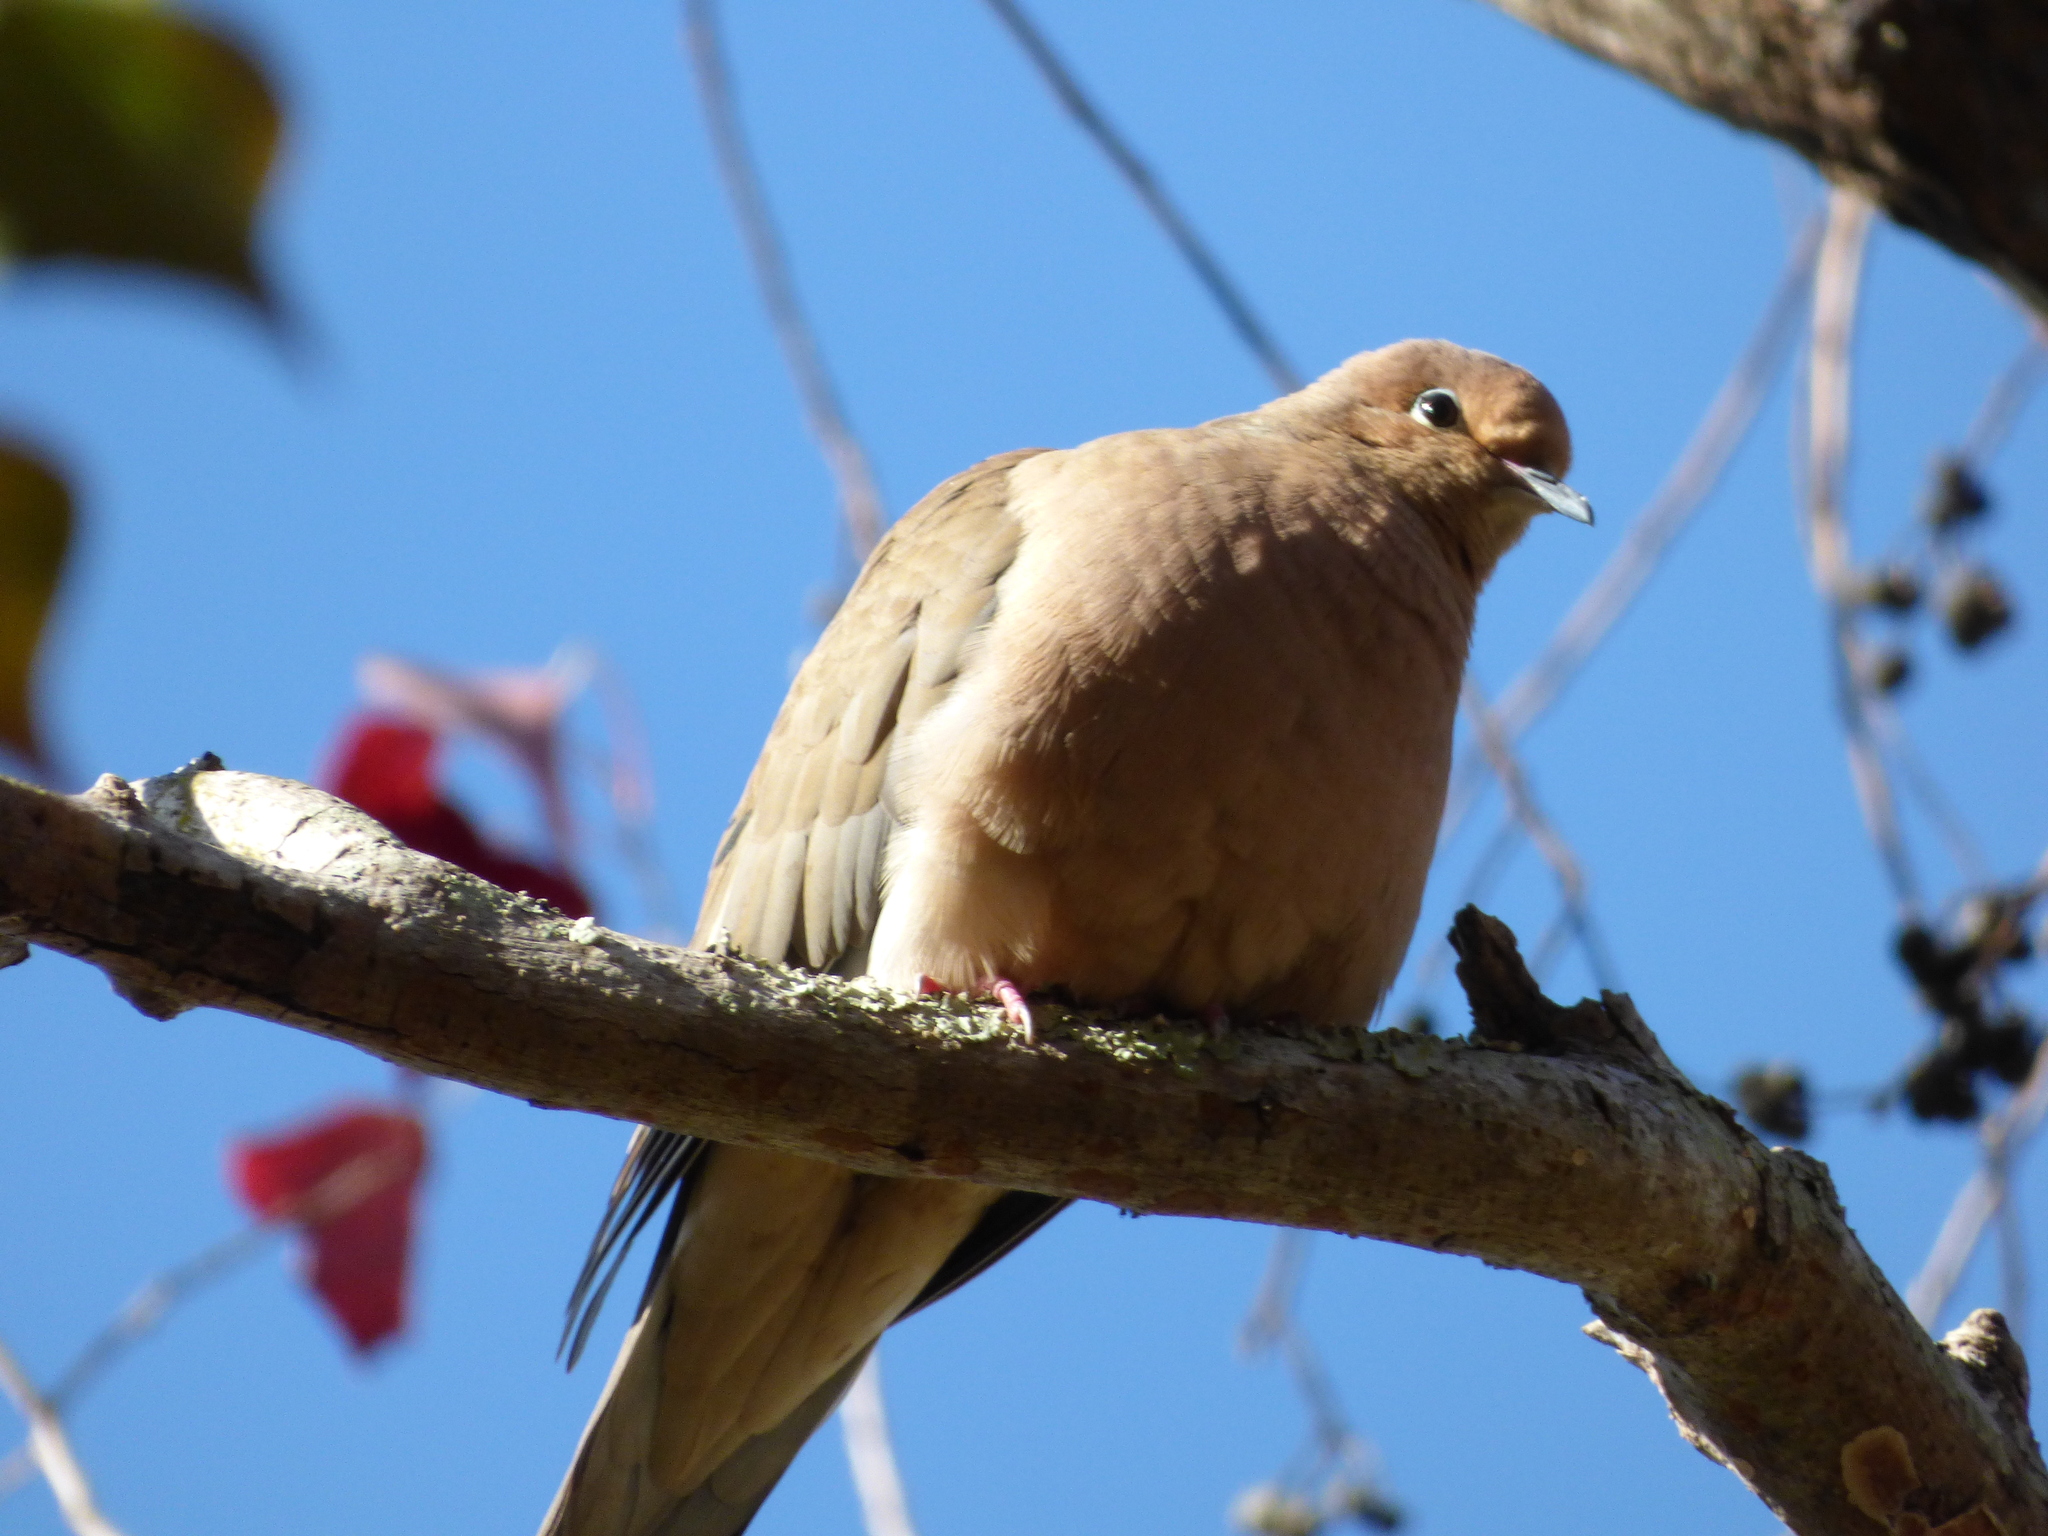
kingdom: Animalia
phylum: Chordata
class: Aves
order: Columbiformes
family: Columbidae
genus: Zenaida
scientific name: Zenaida macroura
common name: Mourning dove
